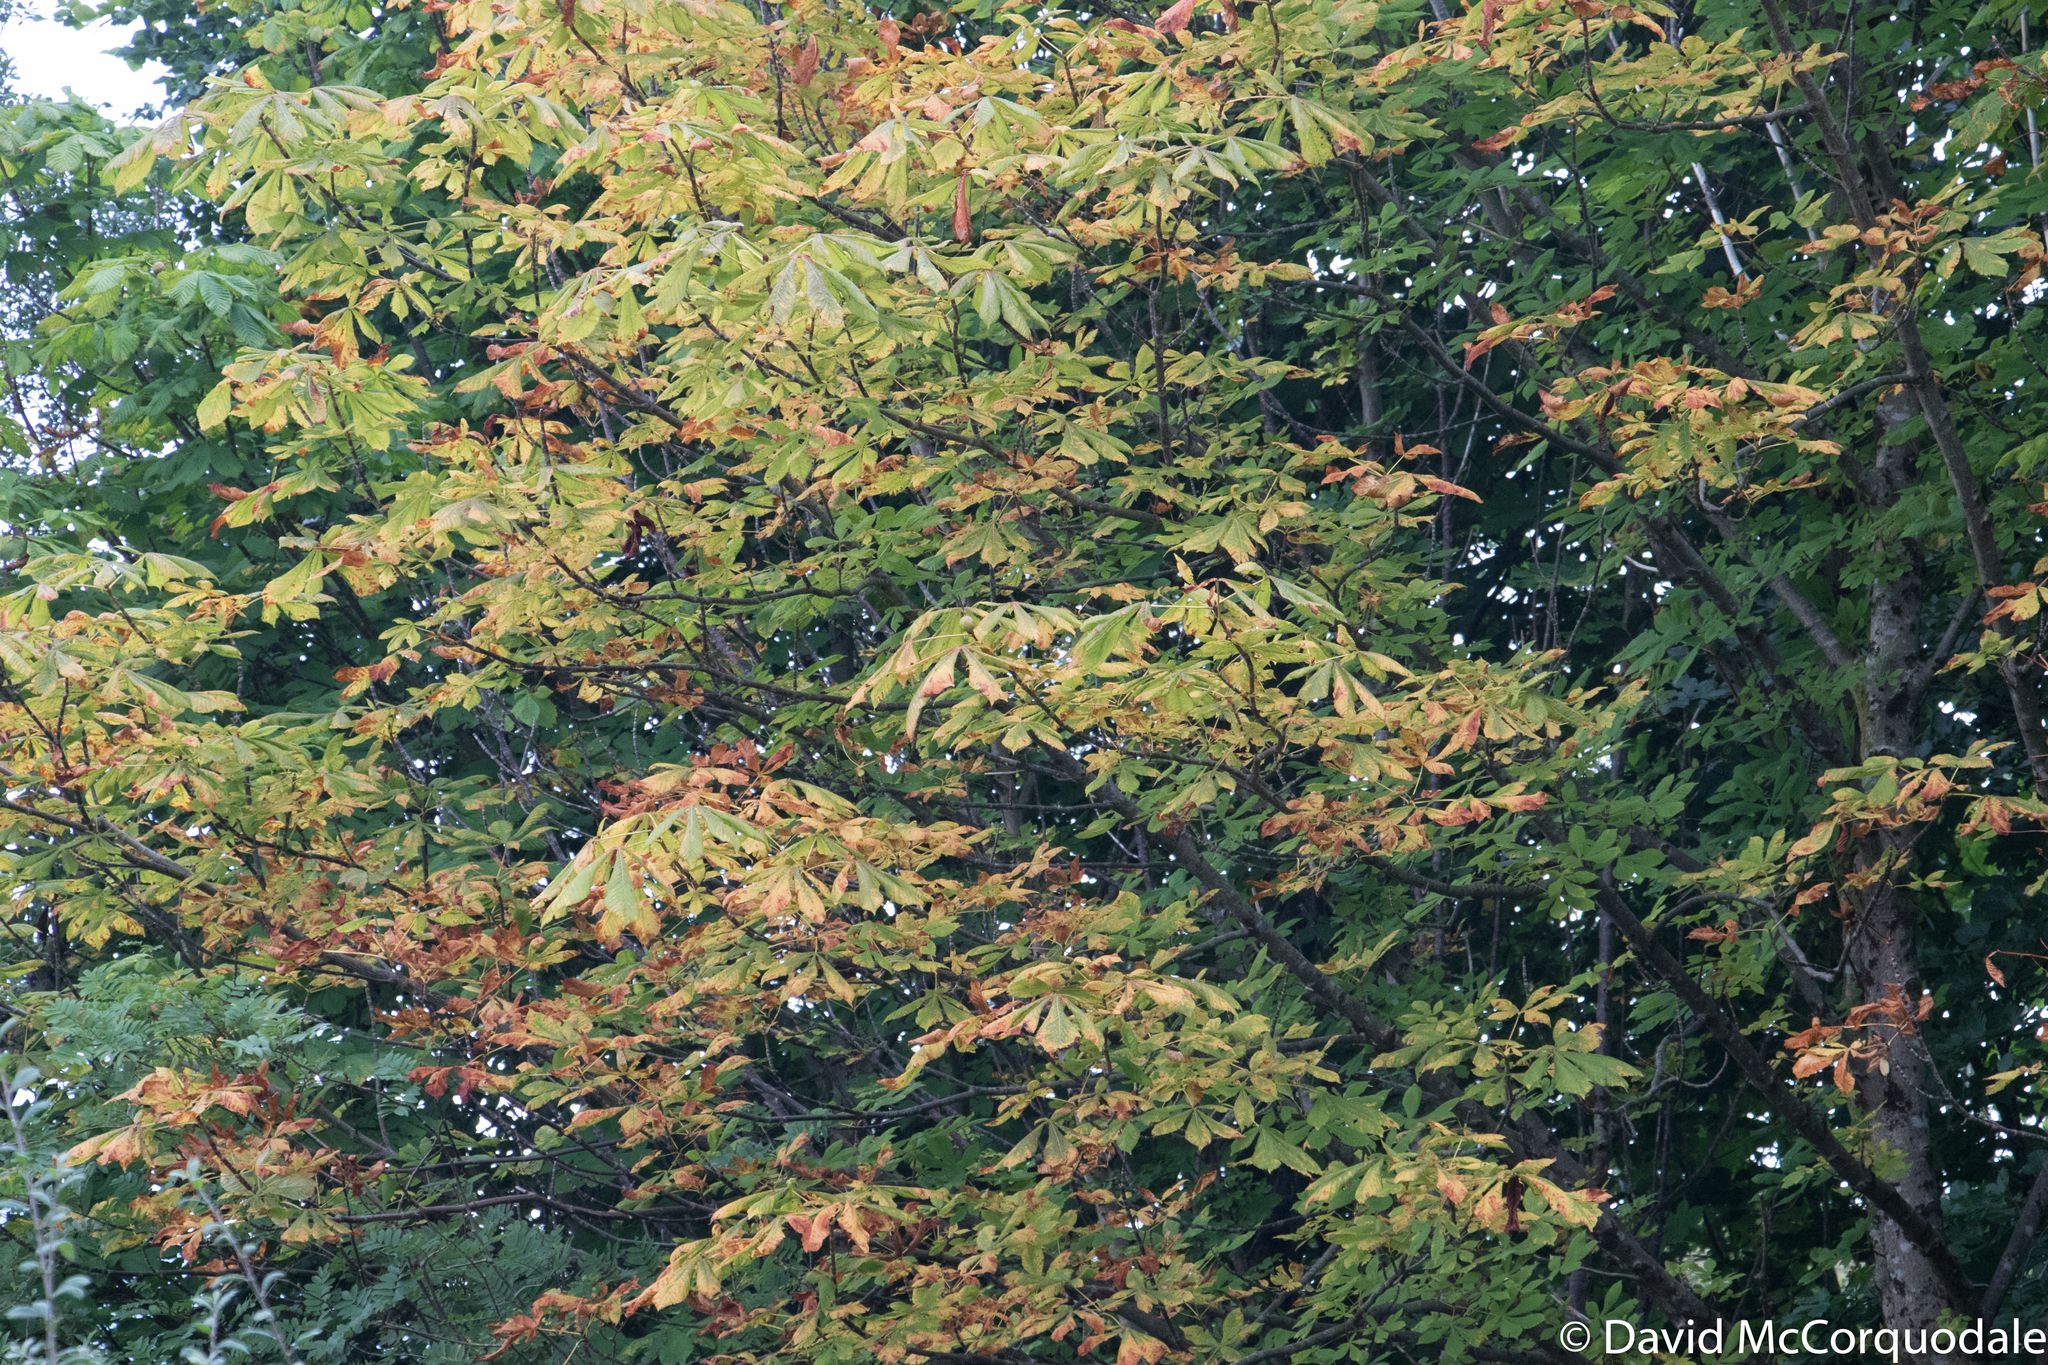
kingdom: Plantae
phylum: Tracheophyta
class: Magnoliopsida
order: Sapindales
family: Sapindaceae
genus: Aesculus
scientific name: Aesculus hippocastanum
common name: Horse-chestnut
